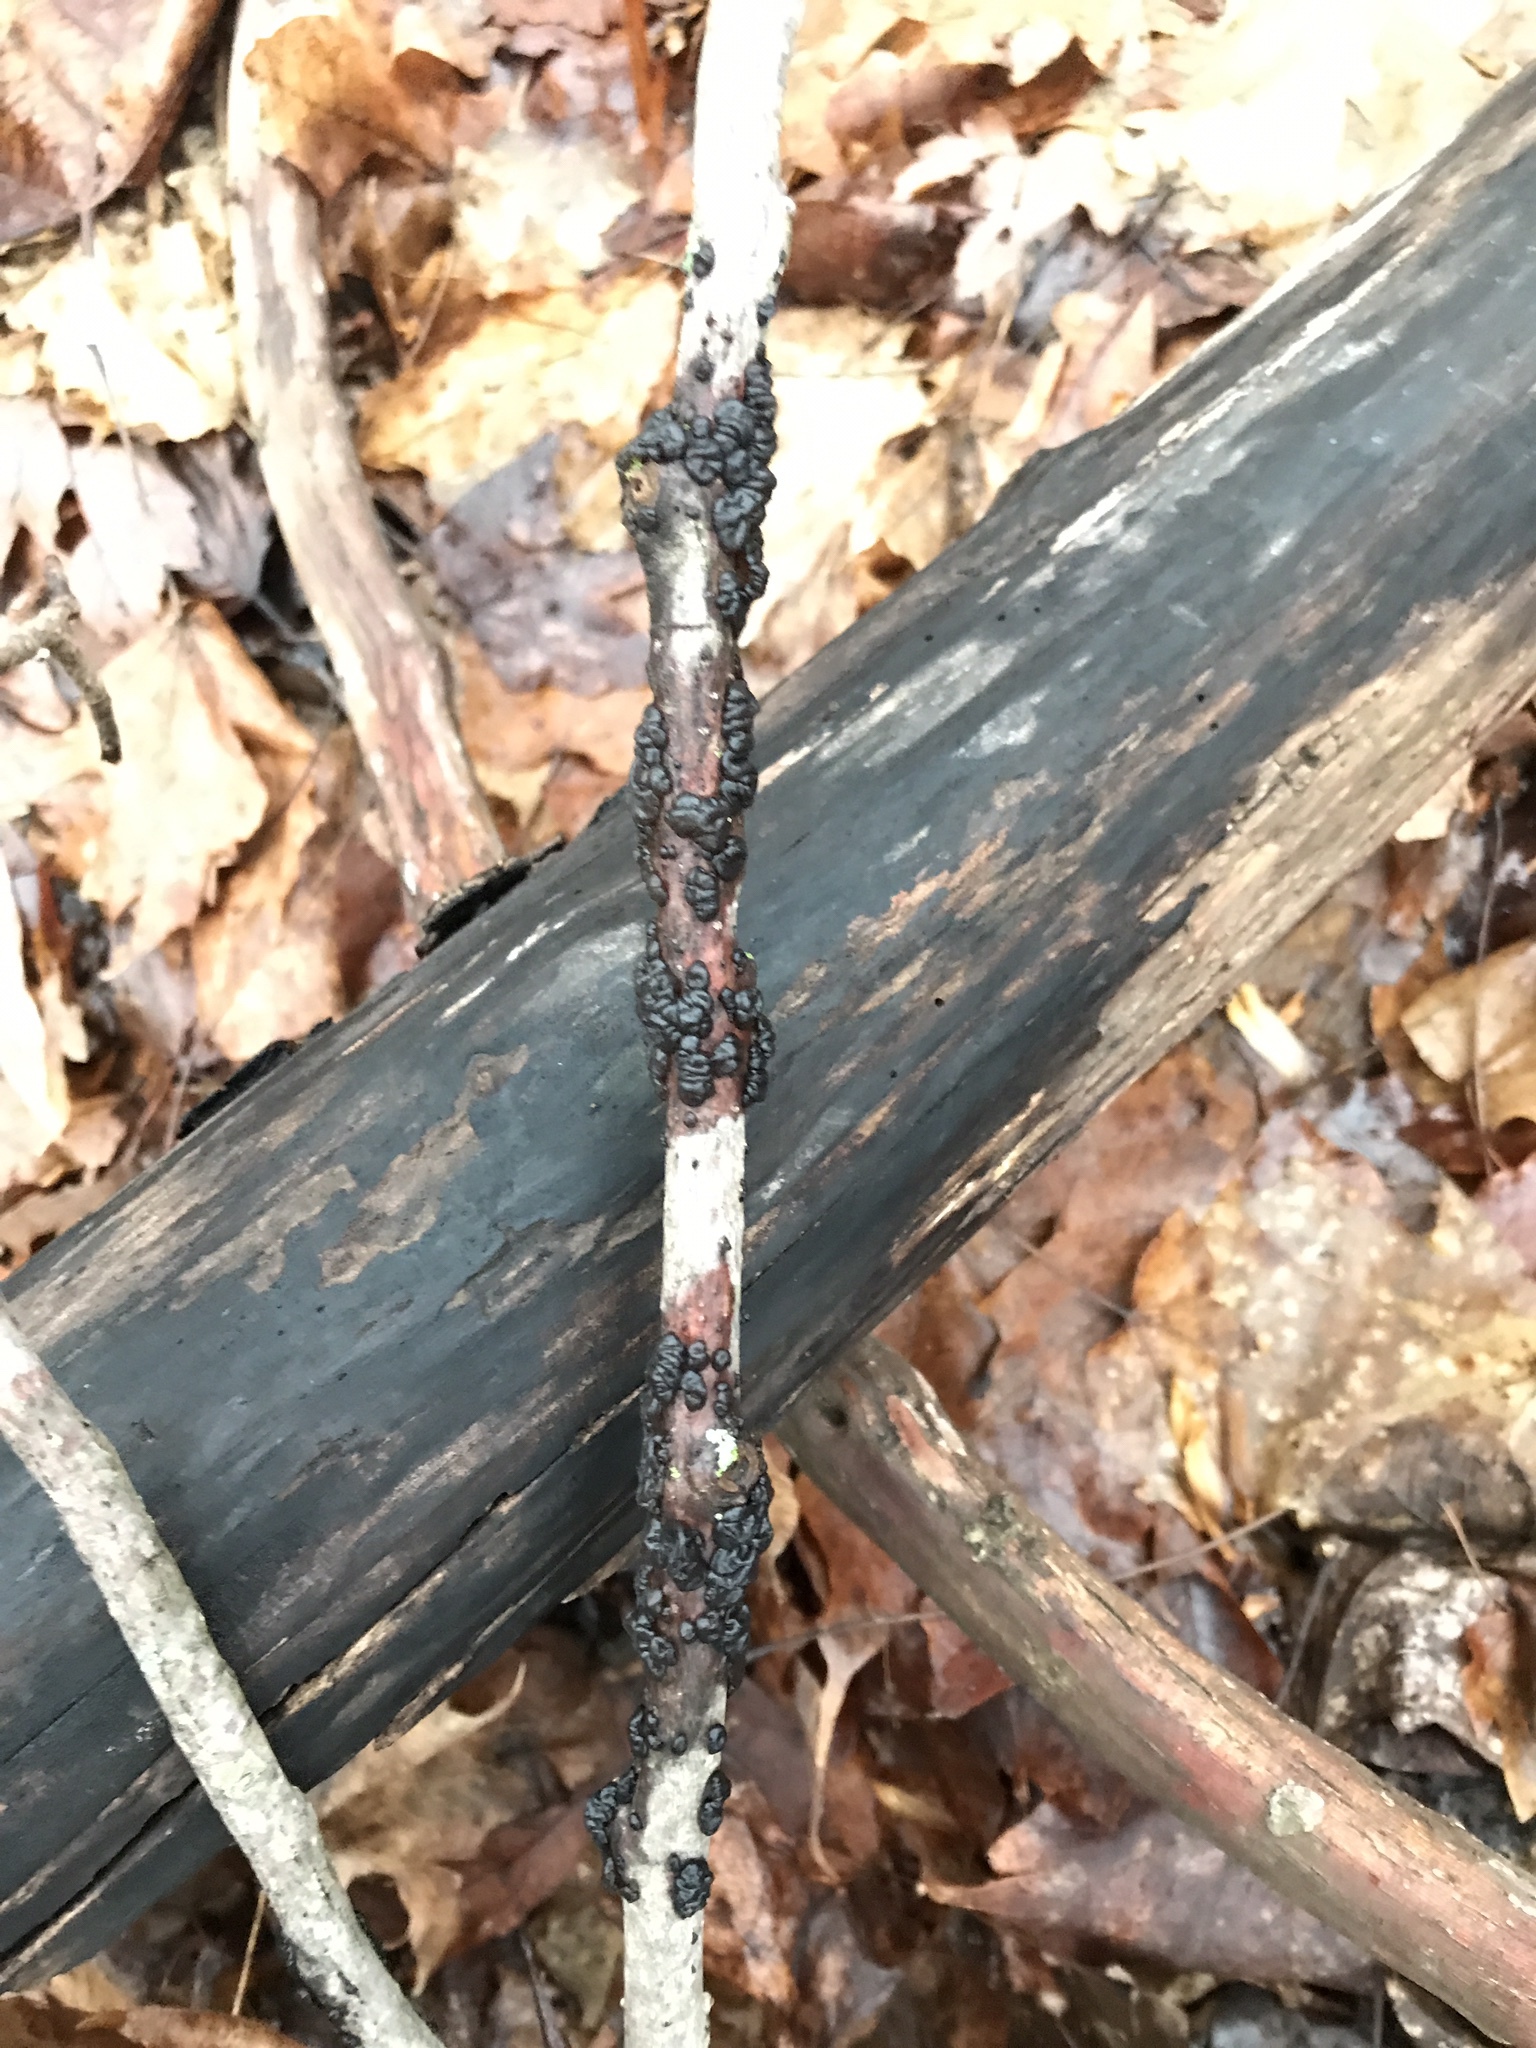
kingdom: Fungi
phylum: Basidiomycota
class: Agaricomycetes
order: Auriculariales
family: Auriculariaceae
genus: Exidia
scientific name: Exidia glandulosa
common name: Witches' butter
